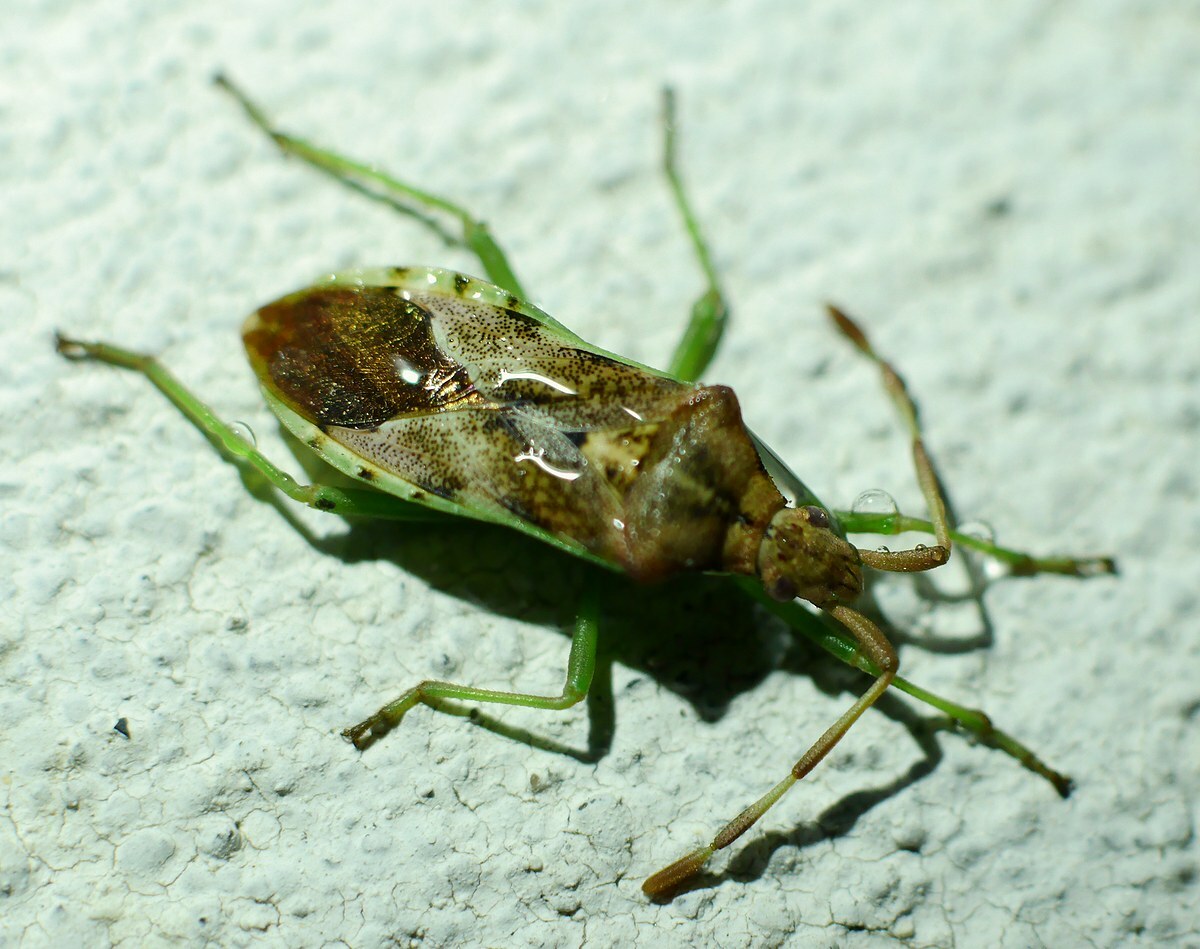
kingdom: Animalia
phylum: Arthropoda
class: Insecta
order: Hemiptera
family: Coreidae
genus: Gonocerus
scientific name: Gonocerus juniperi
